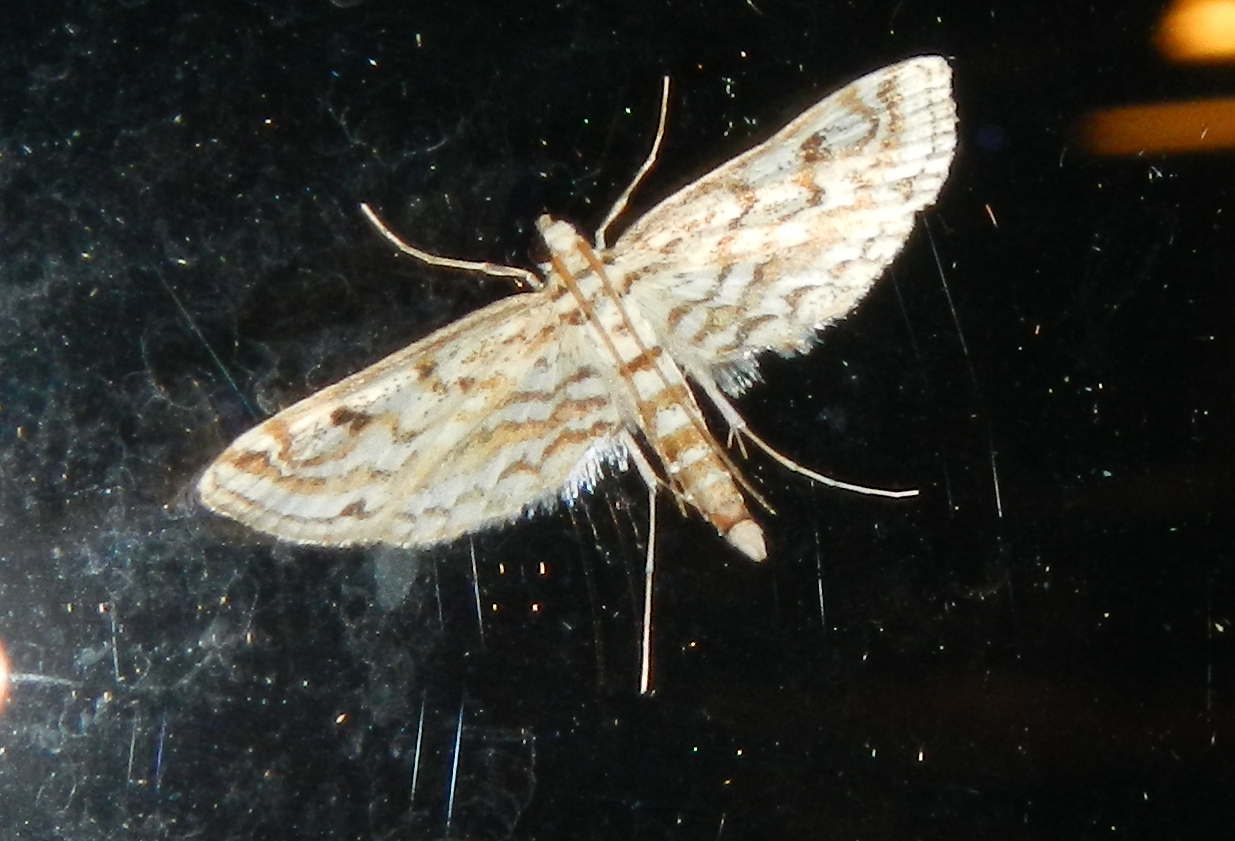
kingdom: Animalia
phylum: Arthropoda
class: Insecta
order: Lepidoptera
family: Crambidae
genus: Parapoynx
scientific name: Parapoynx allionealis
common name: Bladderwort casemaker
